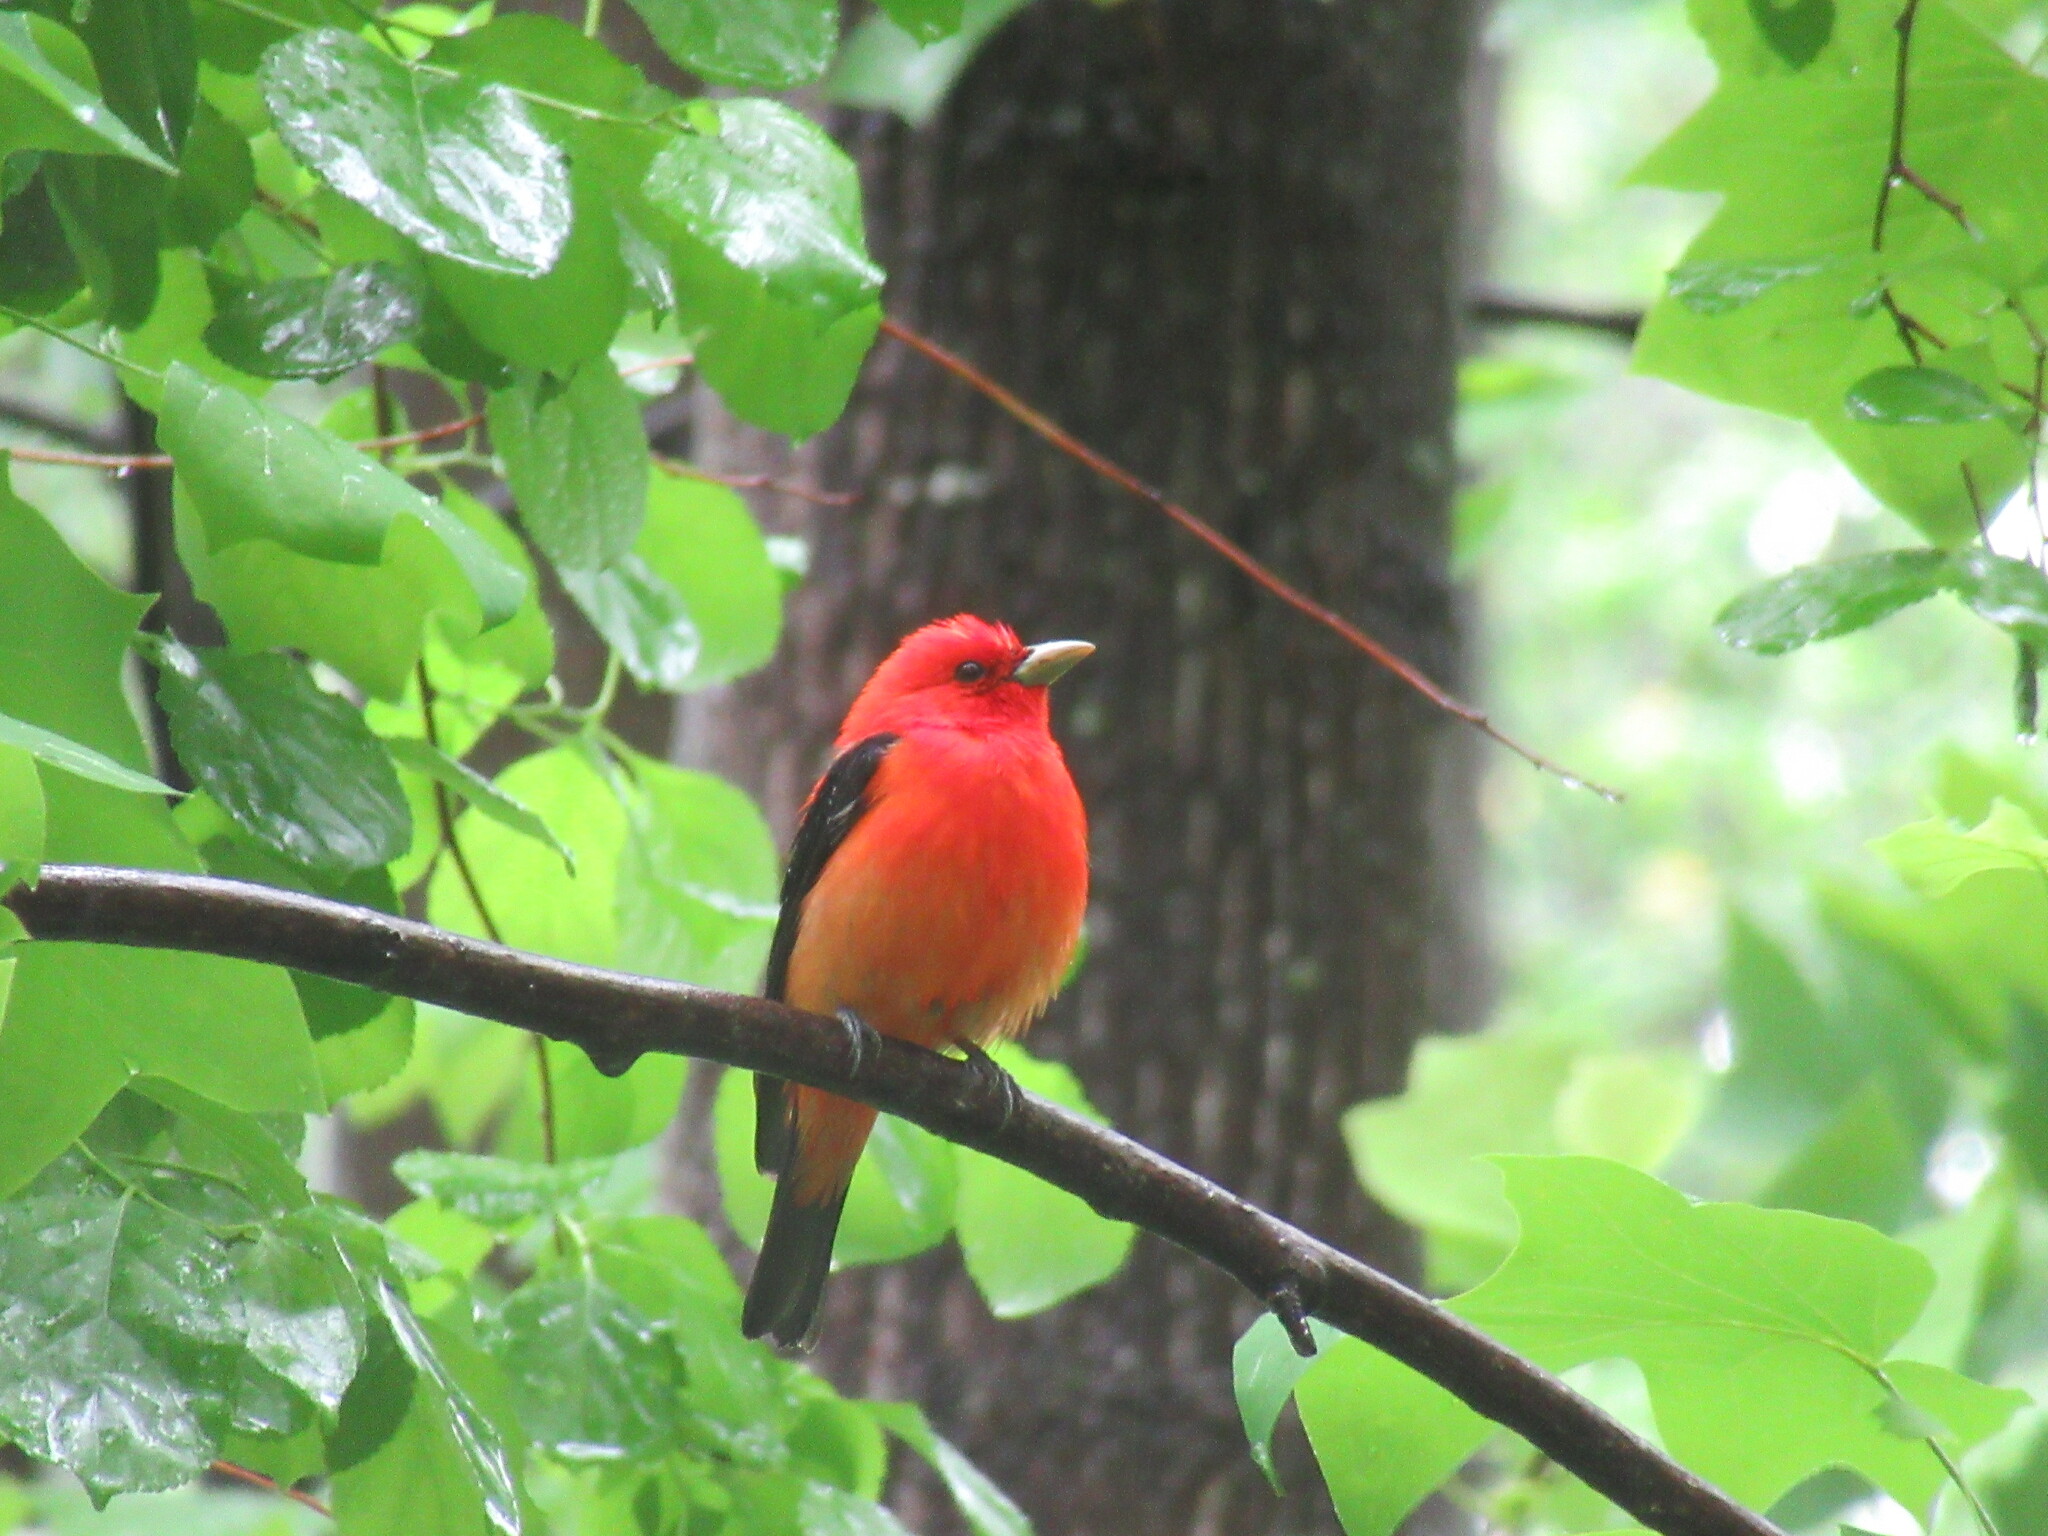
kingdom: Animalia
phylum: Chordata
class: Aves
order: Passeriformes
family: Cardinalidae
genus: Piranga
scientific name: Piranga olivacea
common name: Scarlet tanager
